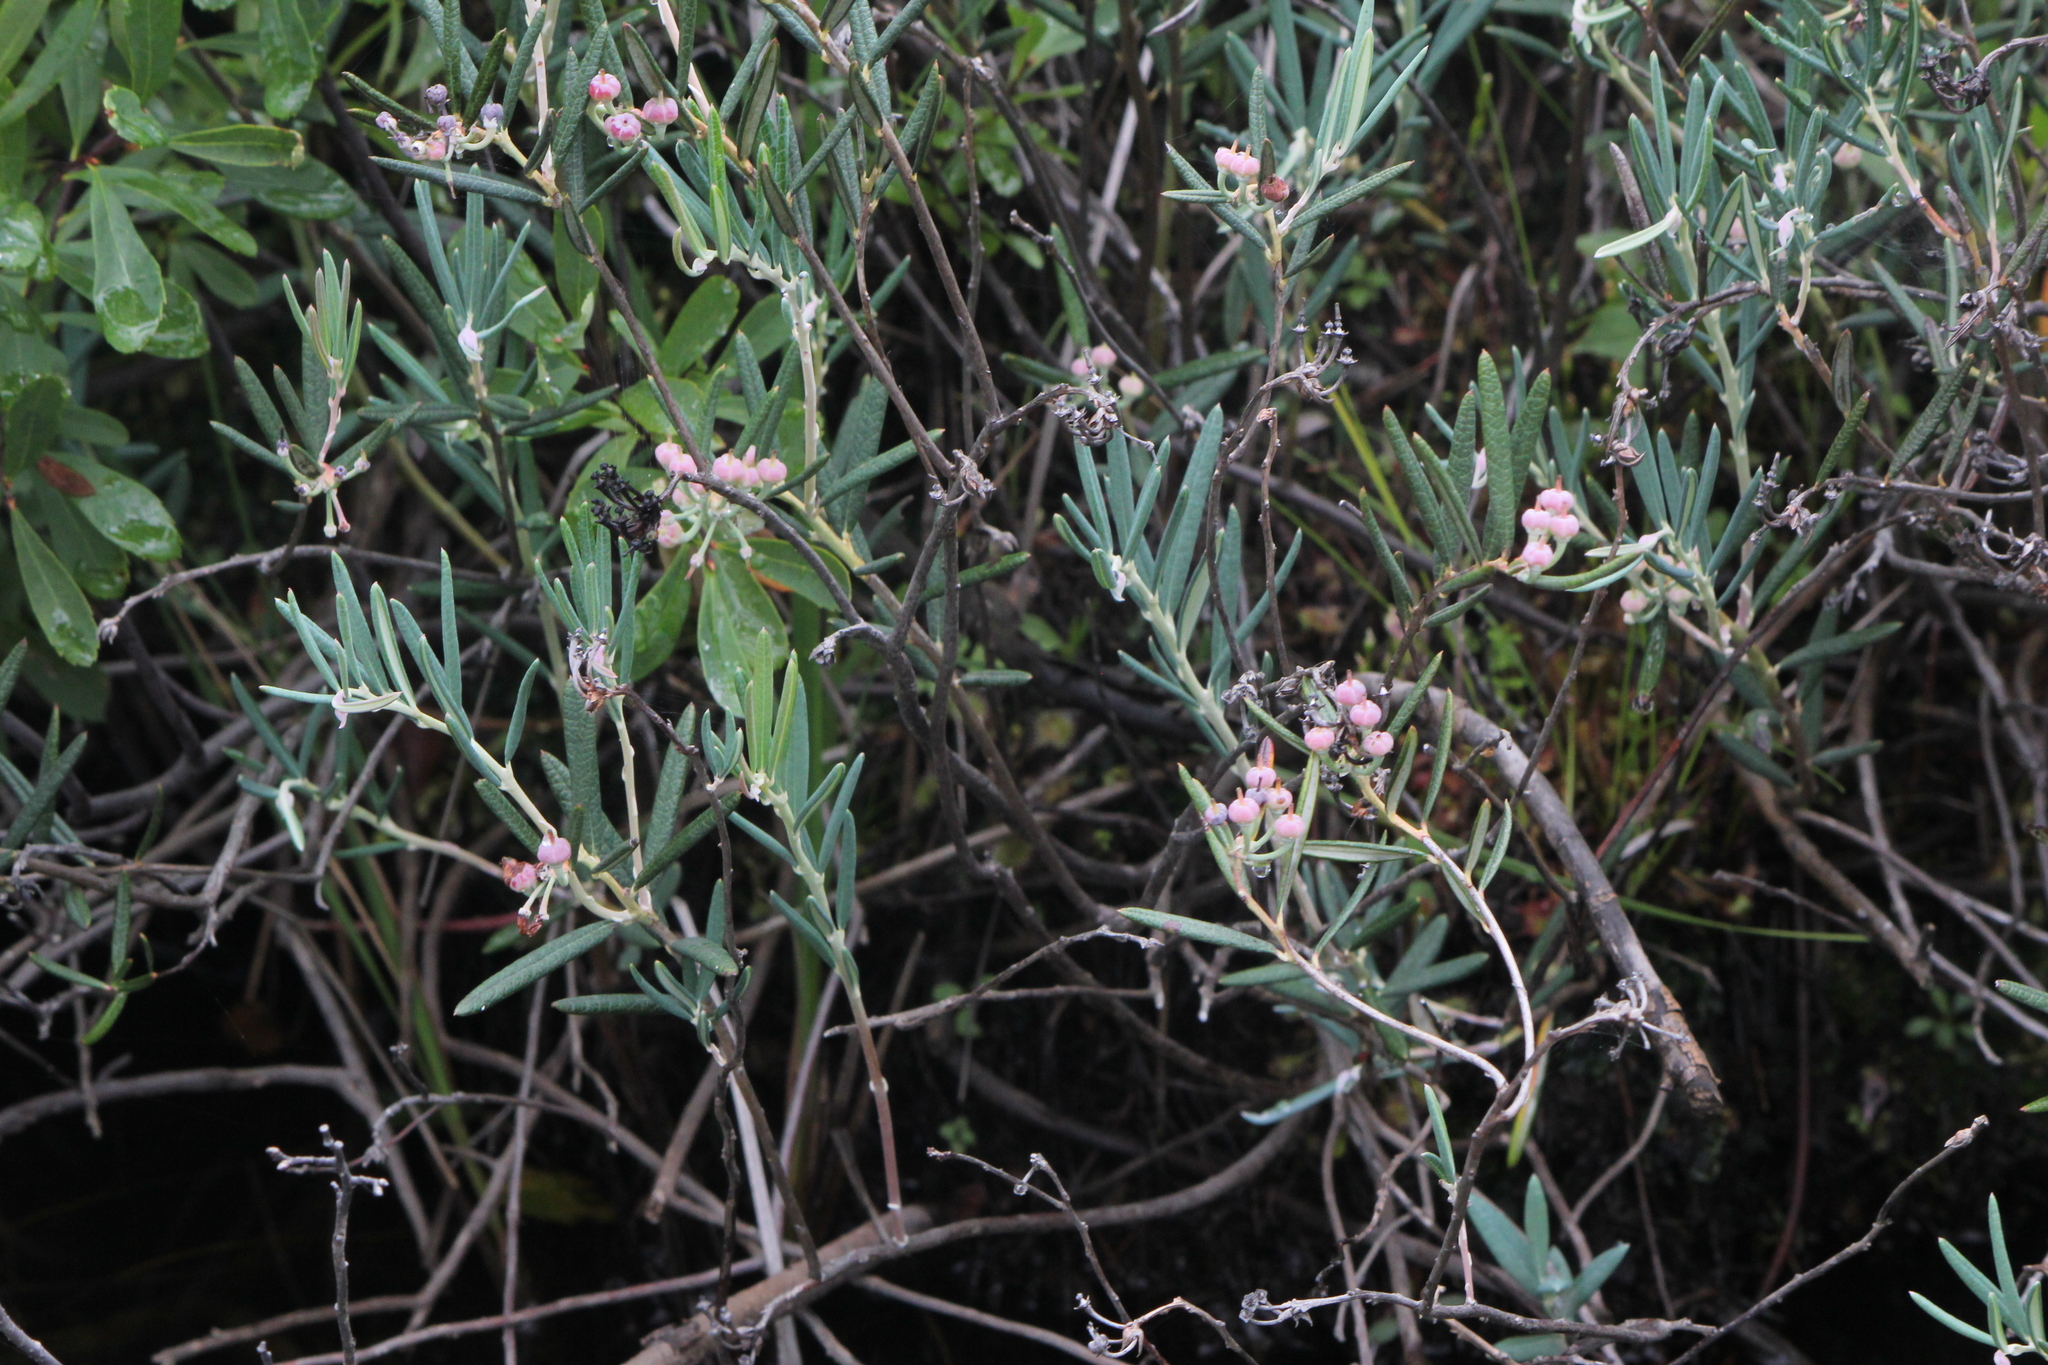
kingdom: Plantae
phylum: Tracheophyta
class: Magnoliopsida
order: Ericales
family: Ericaceae
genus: Andromeda
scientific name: Andromeda polifolia
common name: Bog-rosemary
